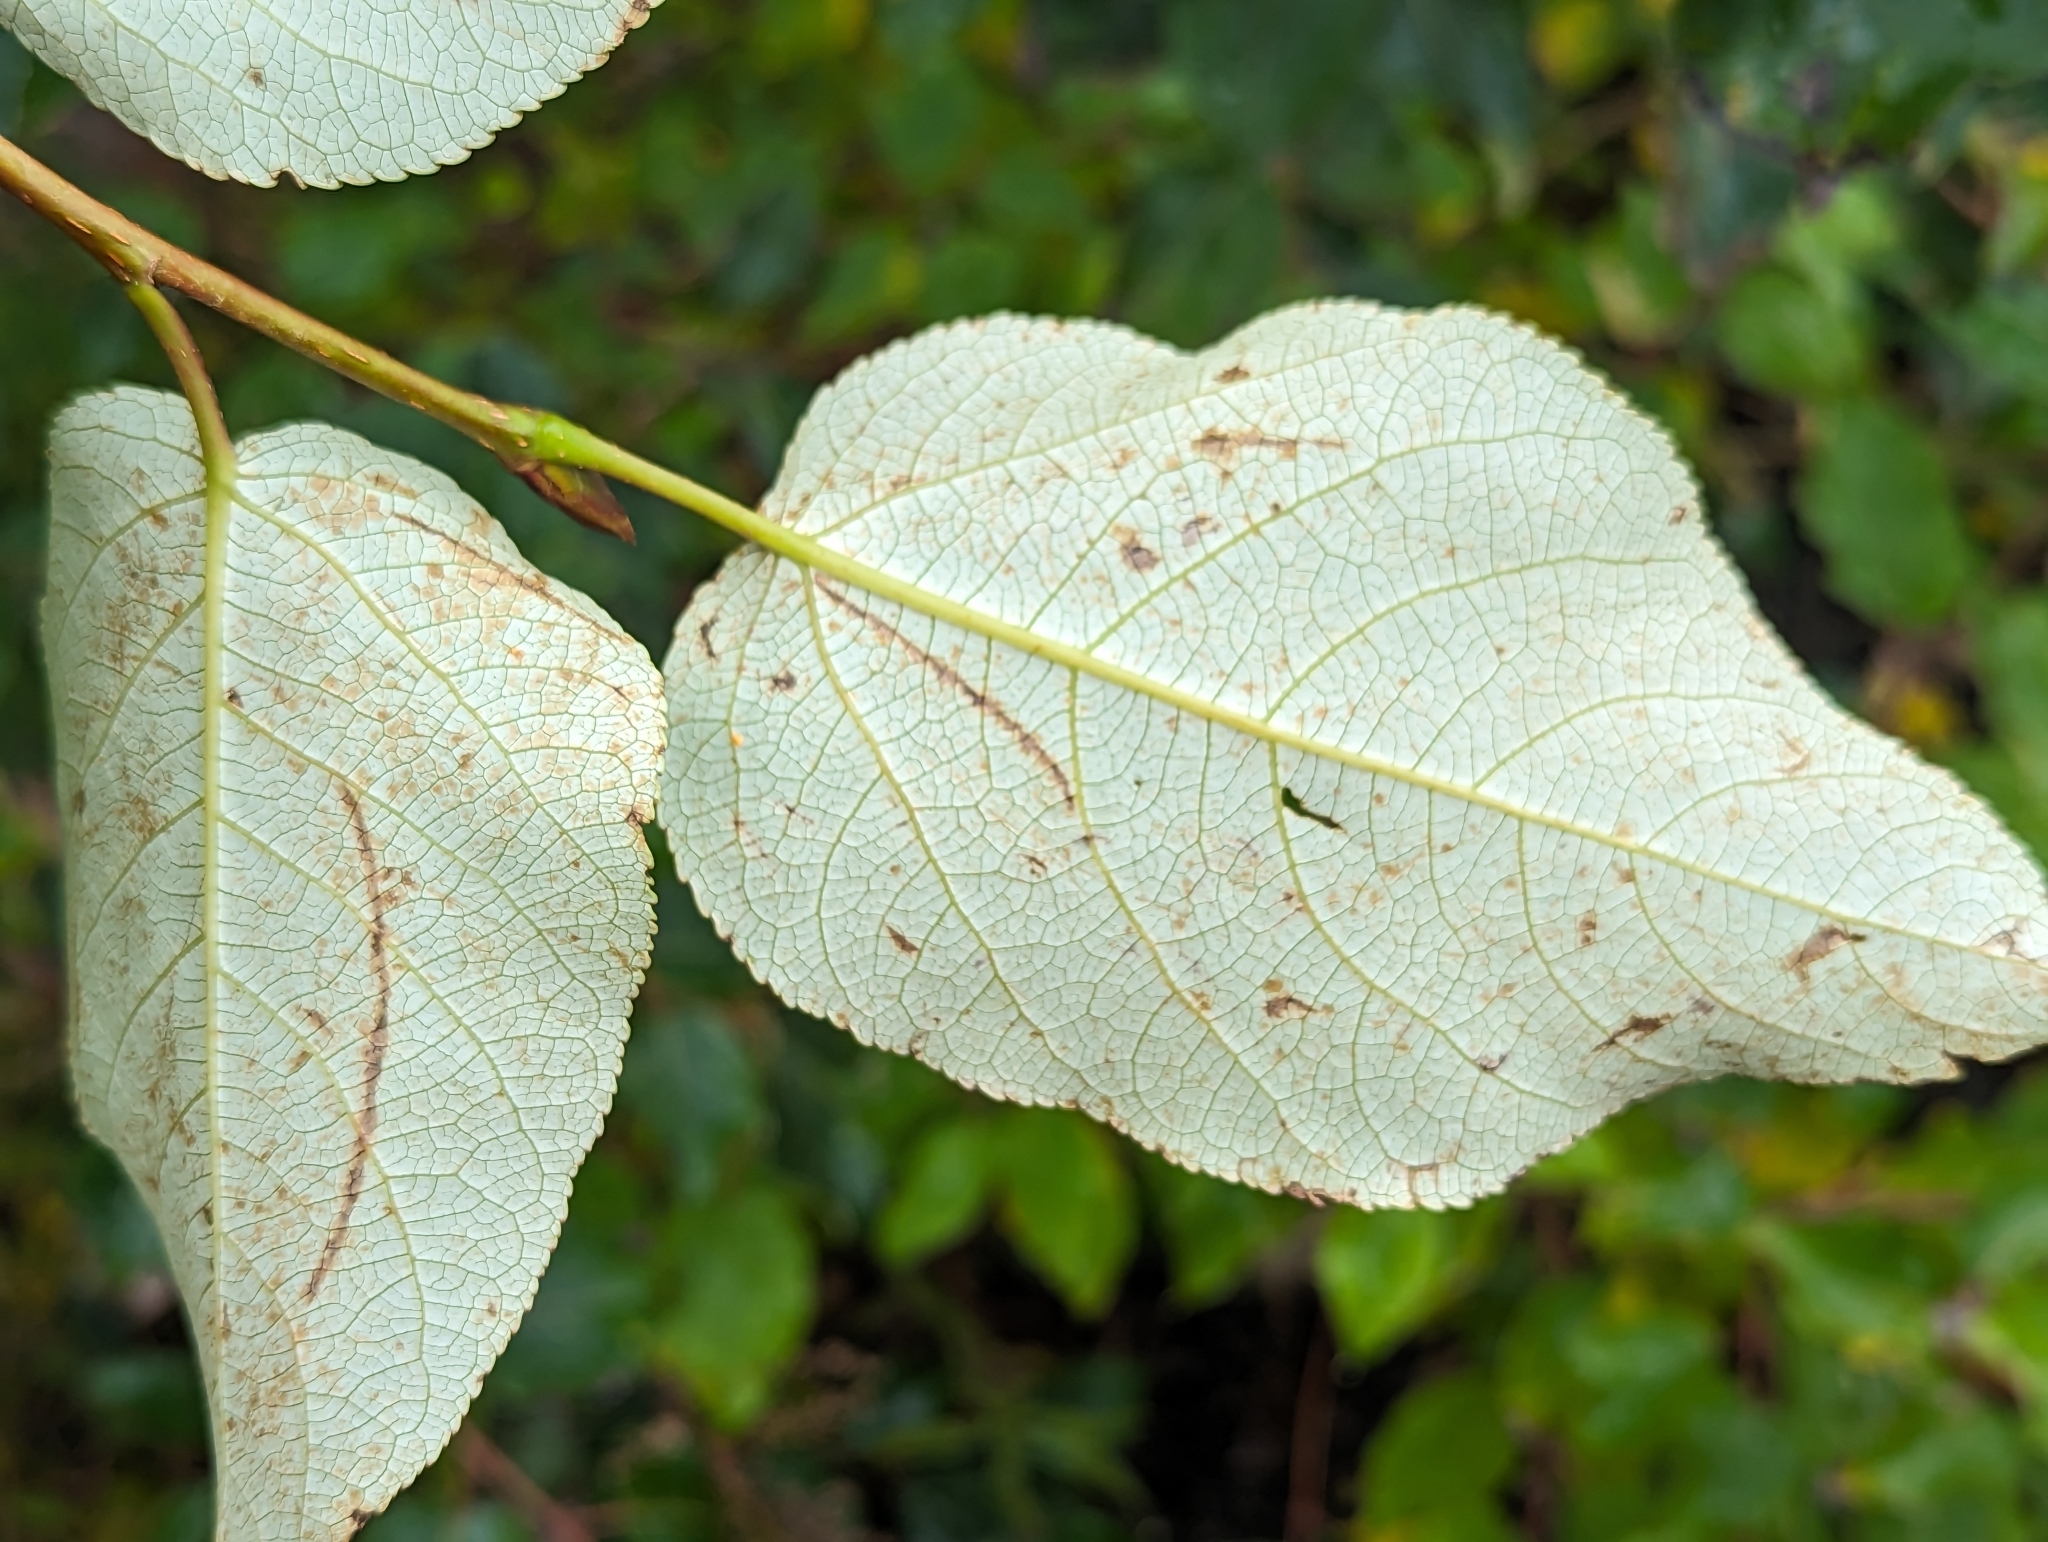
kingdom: Plantae
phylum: Tracheophyta
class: Magnoliopsida
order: Malpighiales
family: Salicaceae
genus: Populus
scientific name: Populus balsamifera
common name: Balsam poplar
